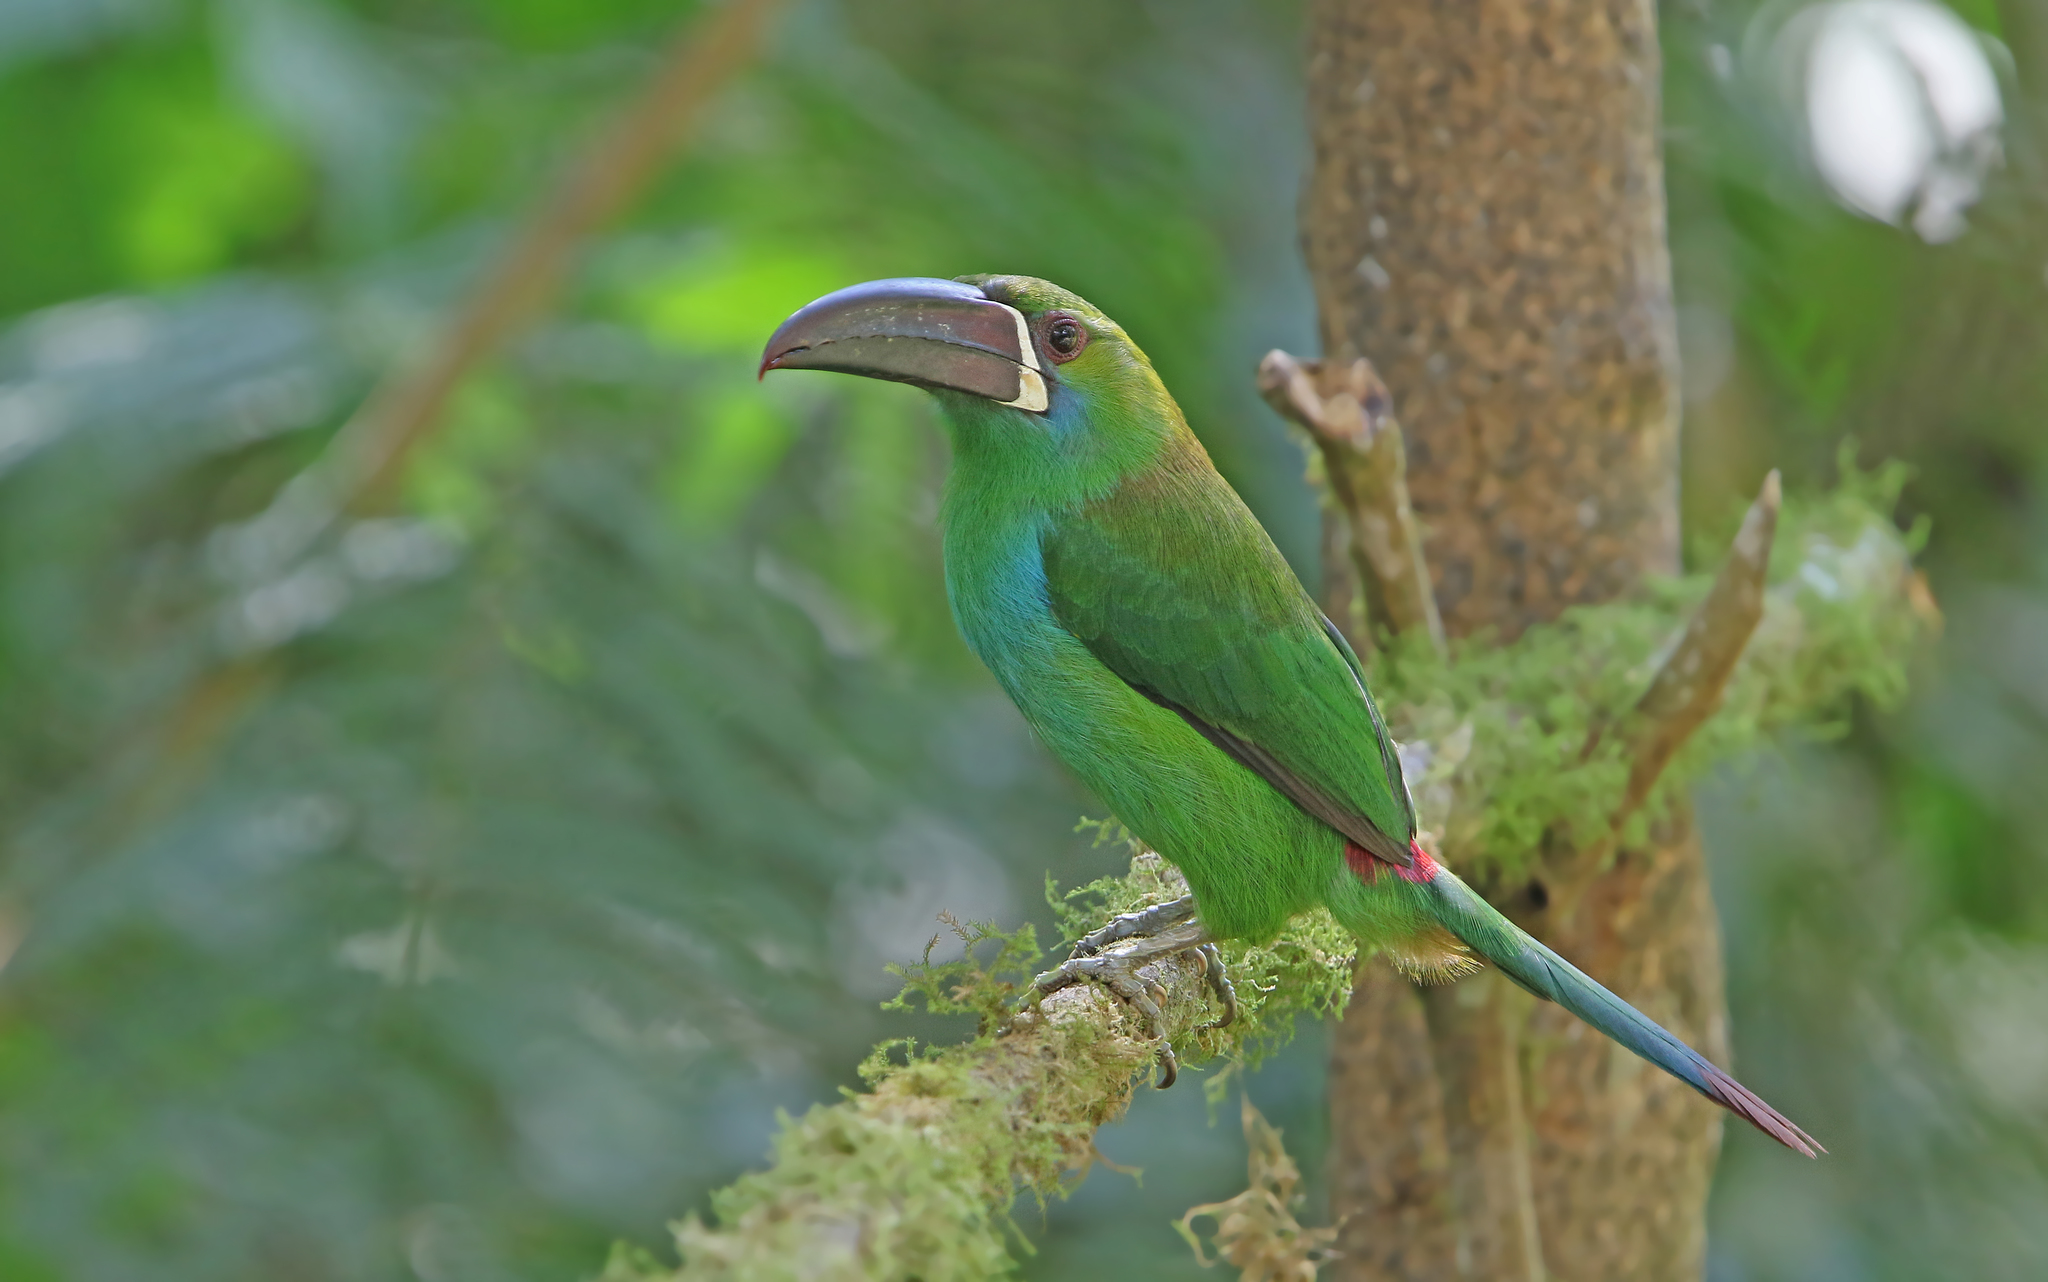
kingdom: Animalia
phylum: Chordata
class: Aves
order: Piciformes
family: Ramphastidae
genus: Aulacorhynchus
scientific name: Aulacorhynchus haematopygus
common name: Crimson-rumped toucanet
